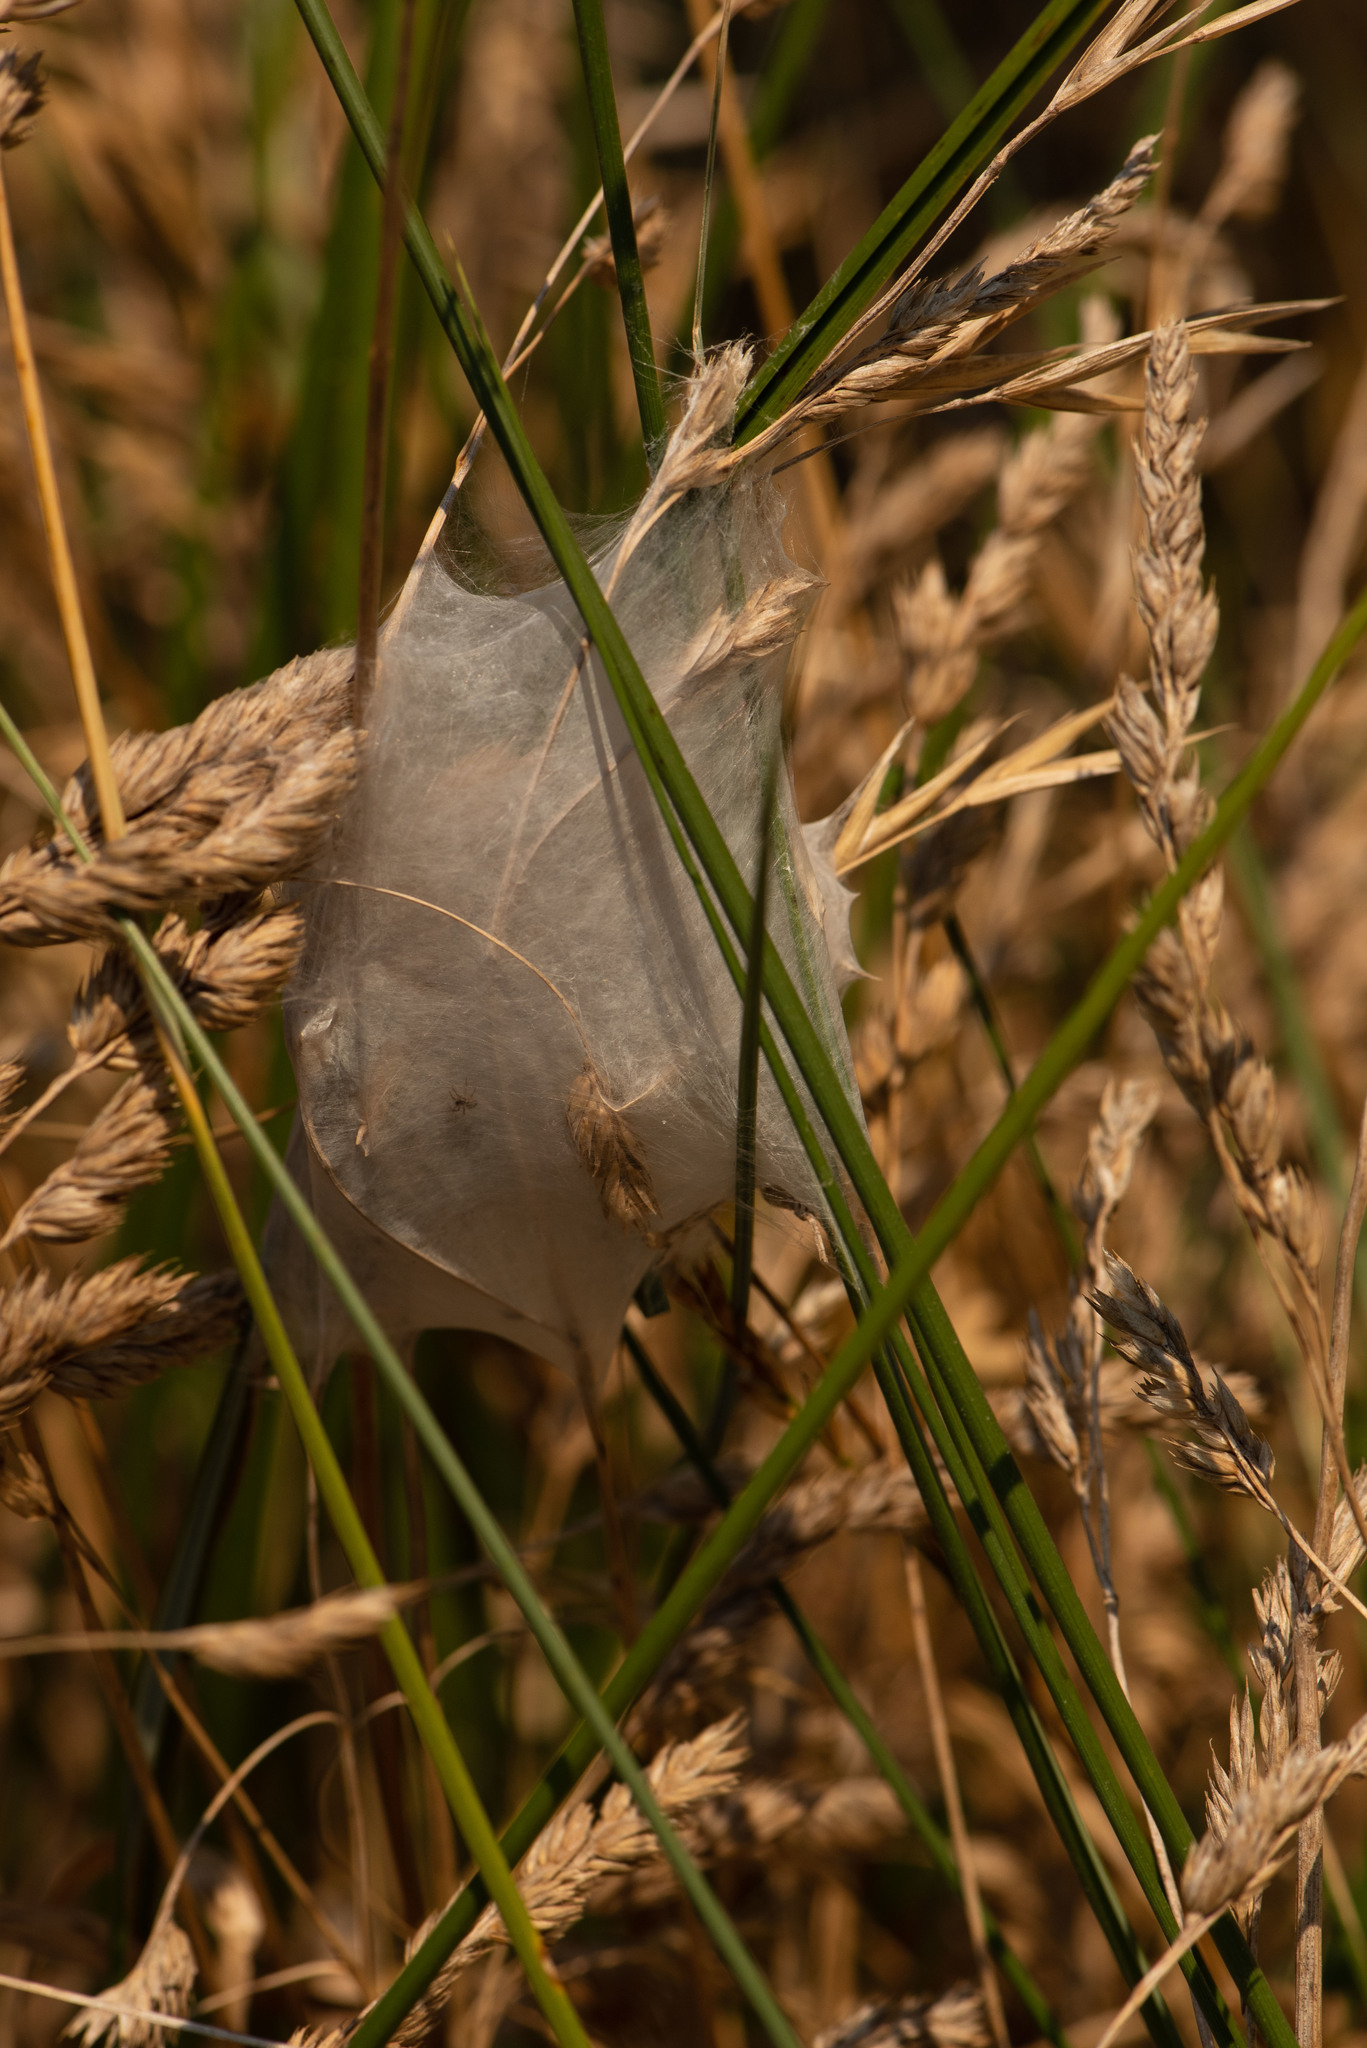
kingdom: Animalia
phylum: Arthropoda
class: Arachnida
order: Araneae
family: Pisauridae
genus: Dolomedes
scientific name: Dolomedes minor
